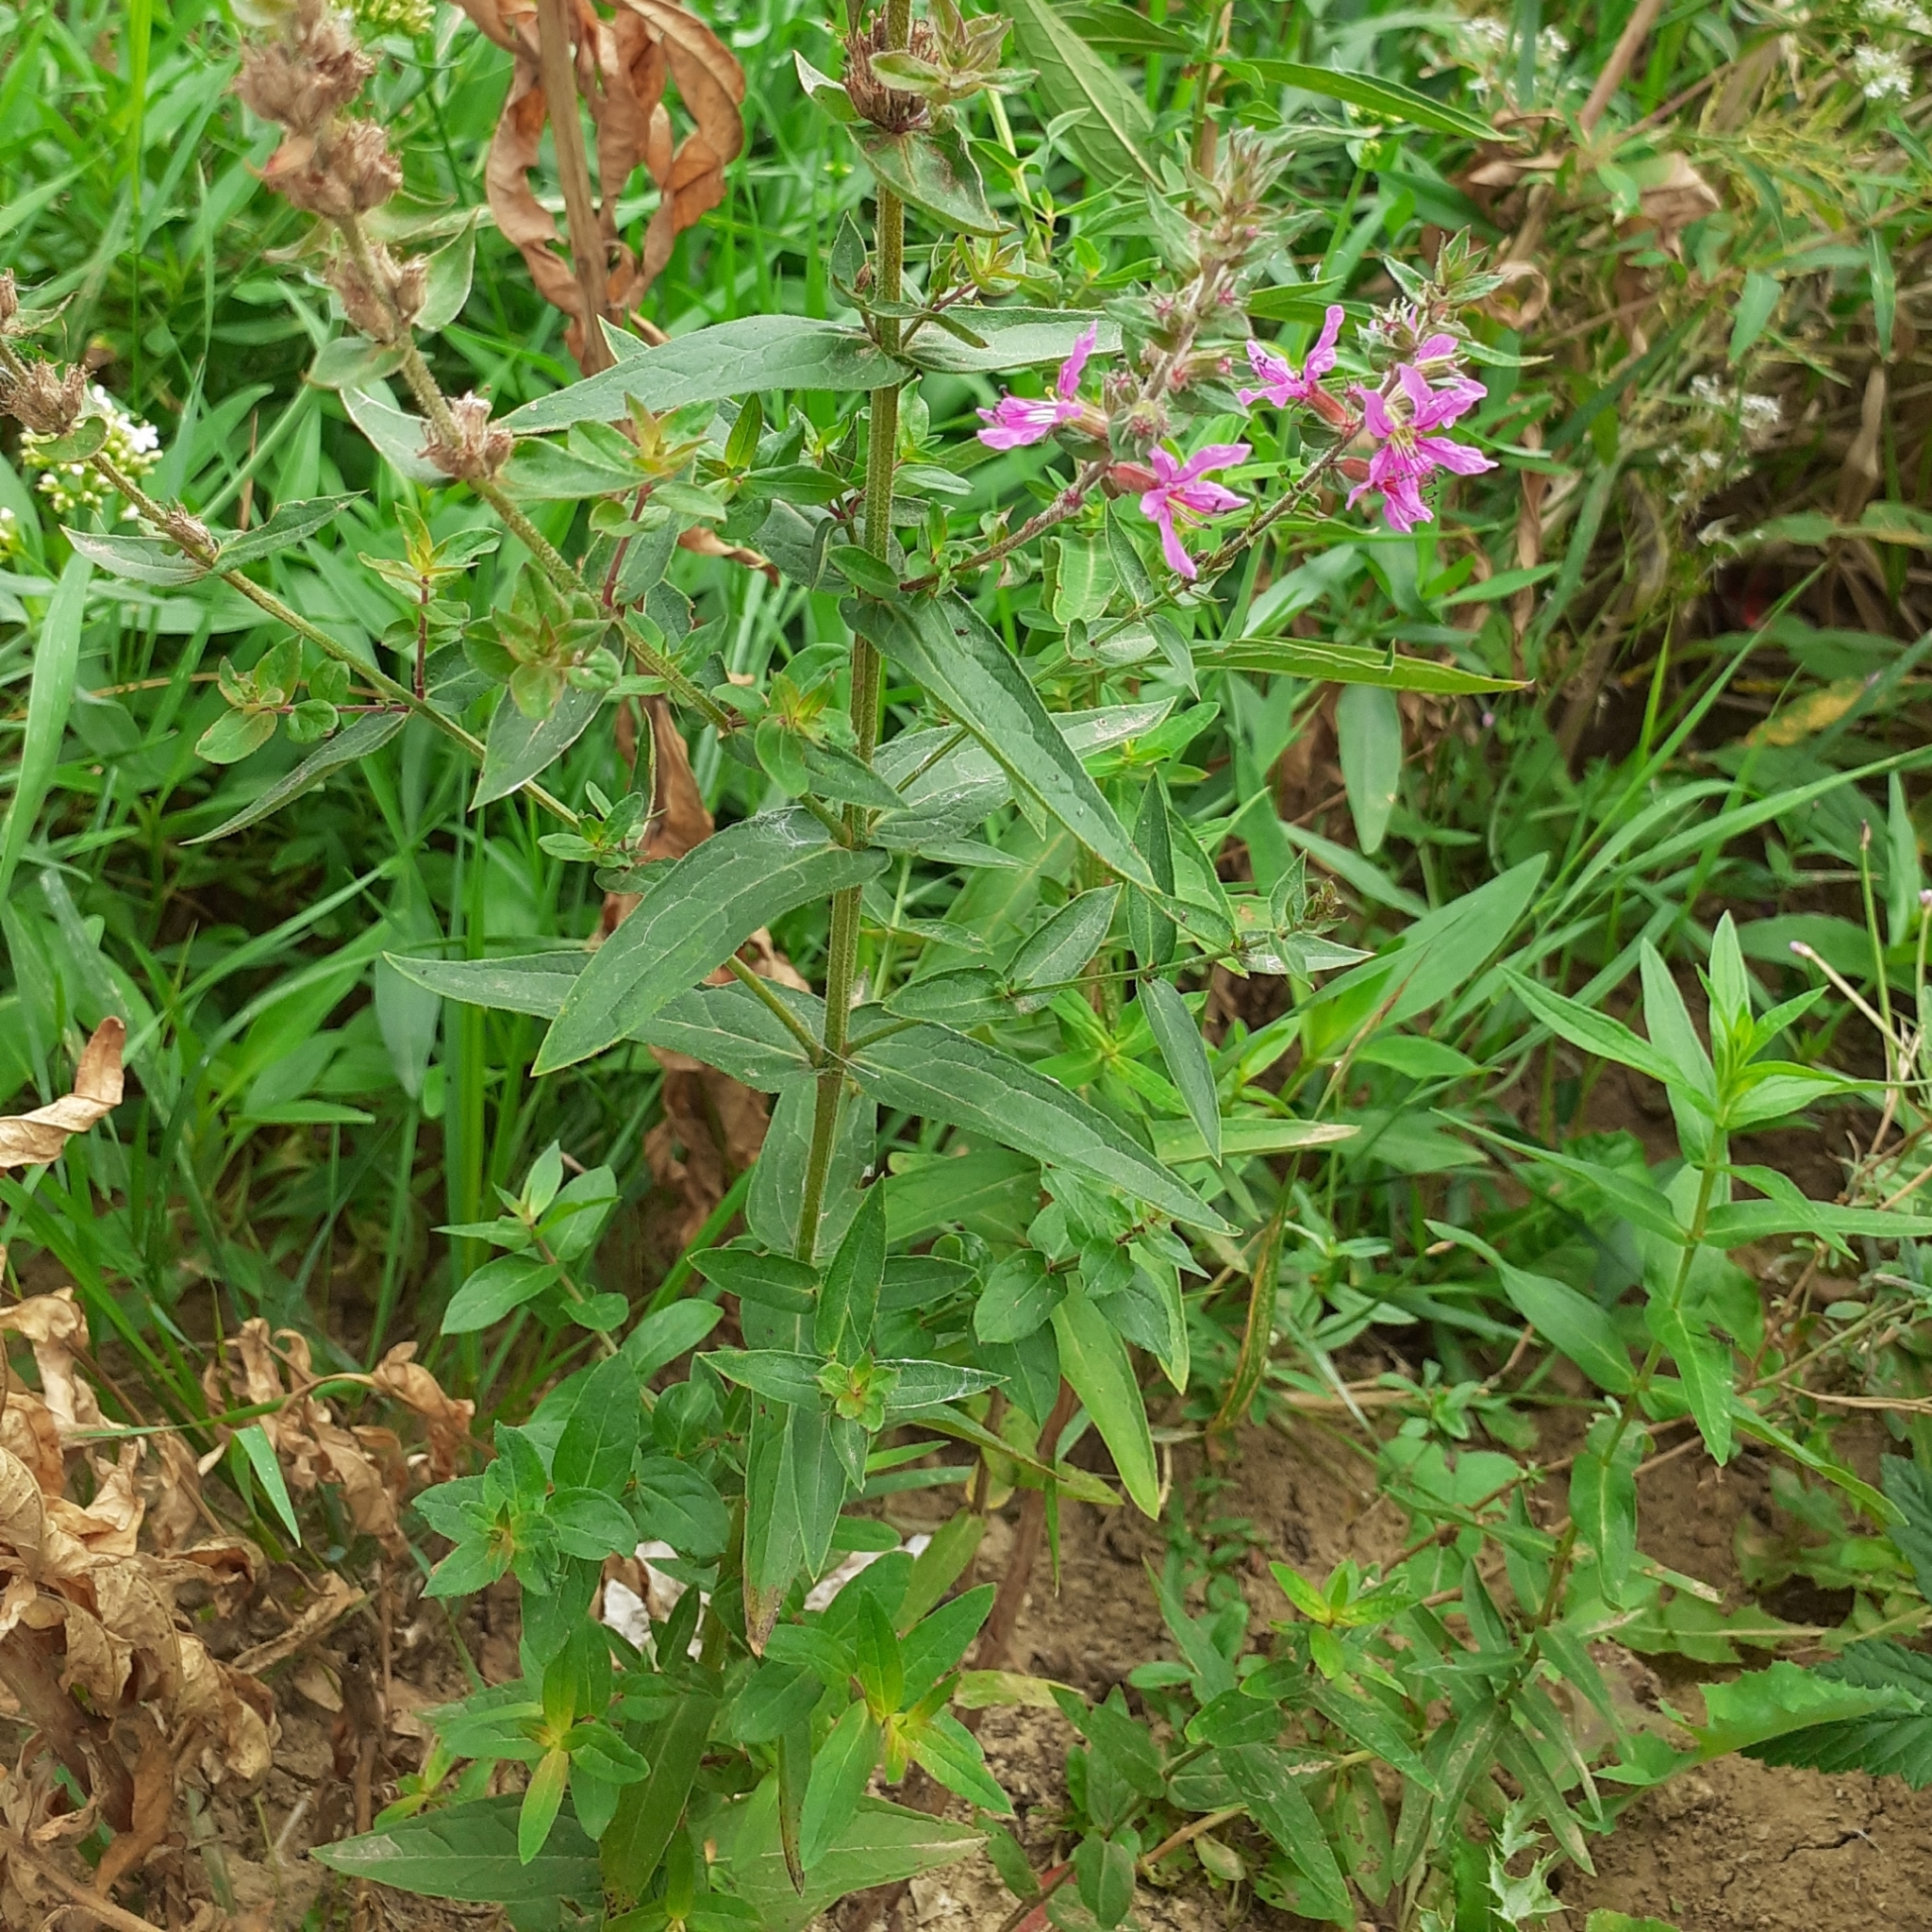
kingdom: Plantae
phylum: Tracheophyta
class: Magnoliopsida
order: Myrtales
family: Lythraceae
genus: Lythrum
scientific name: Lythrum salicaria
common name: Purple loosestrife
